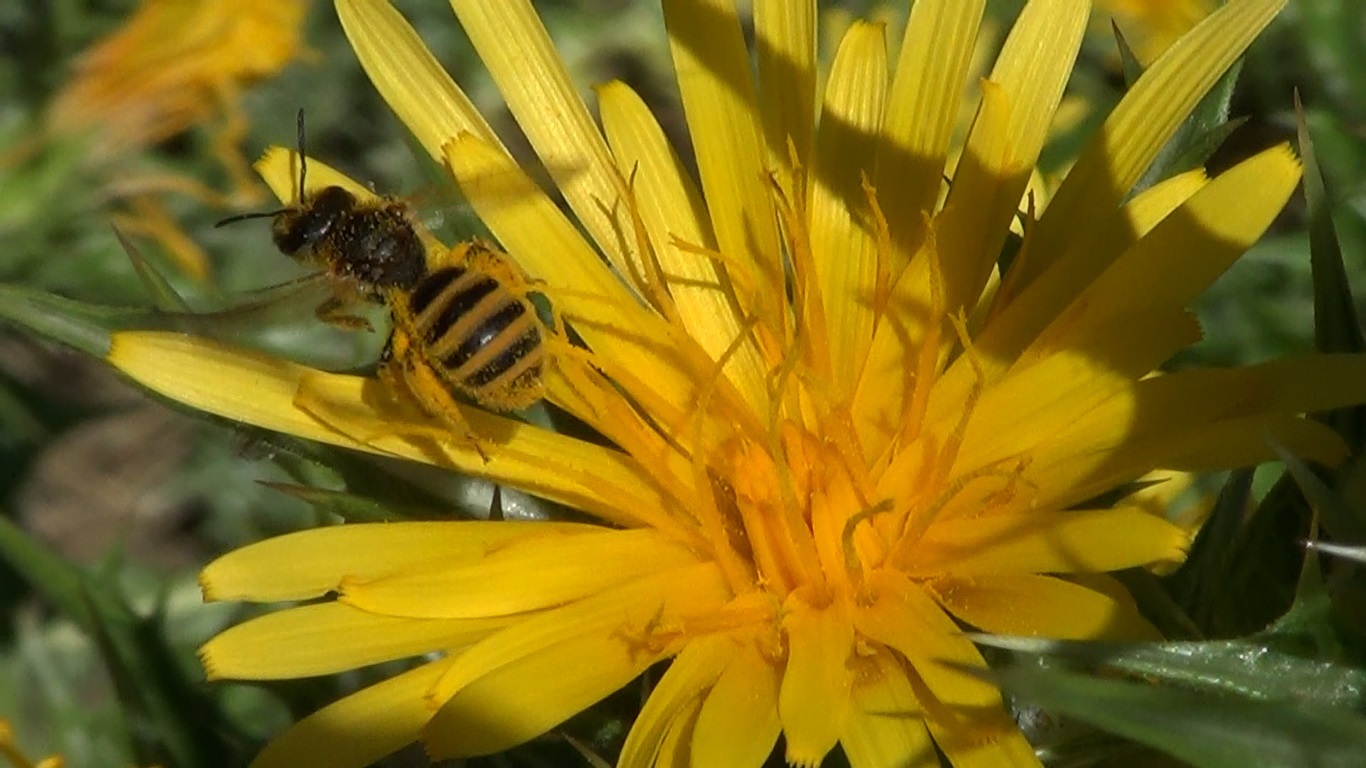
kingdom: Animalia
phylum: Arthropoda
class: Insecta
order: Hymenoptera
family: Halictidae
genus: Halictus
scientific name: Halictus scabiosae
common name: Great banded furrow bee
